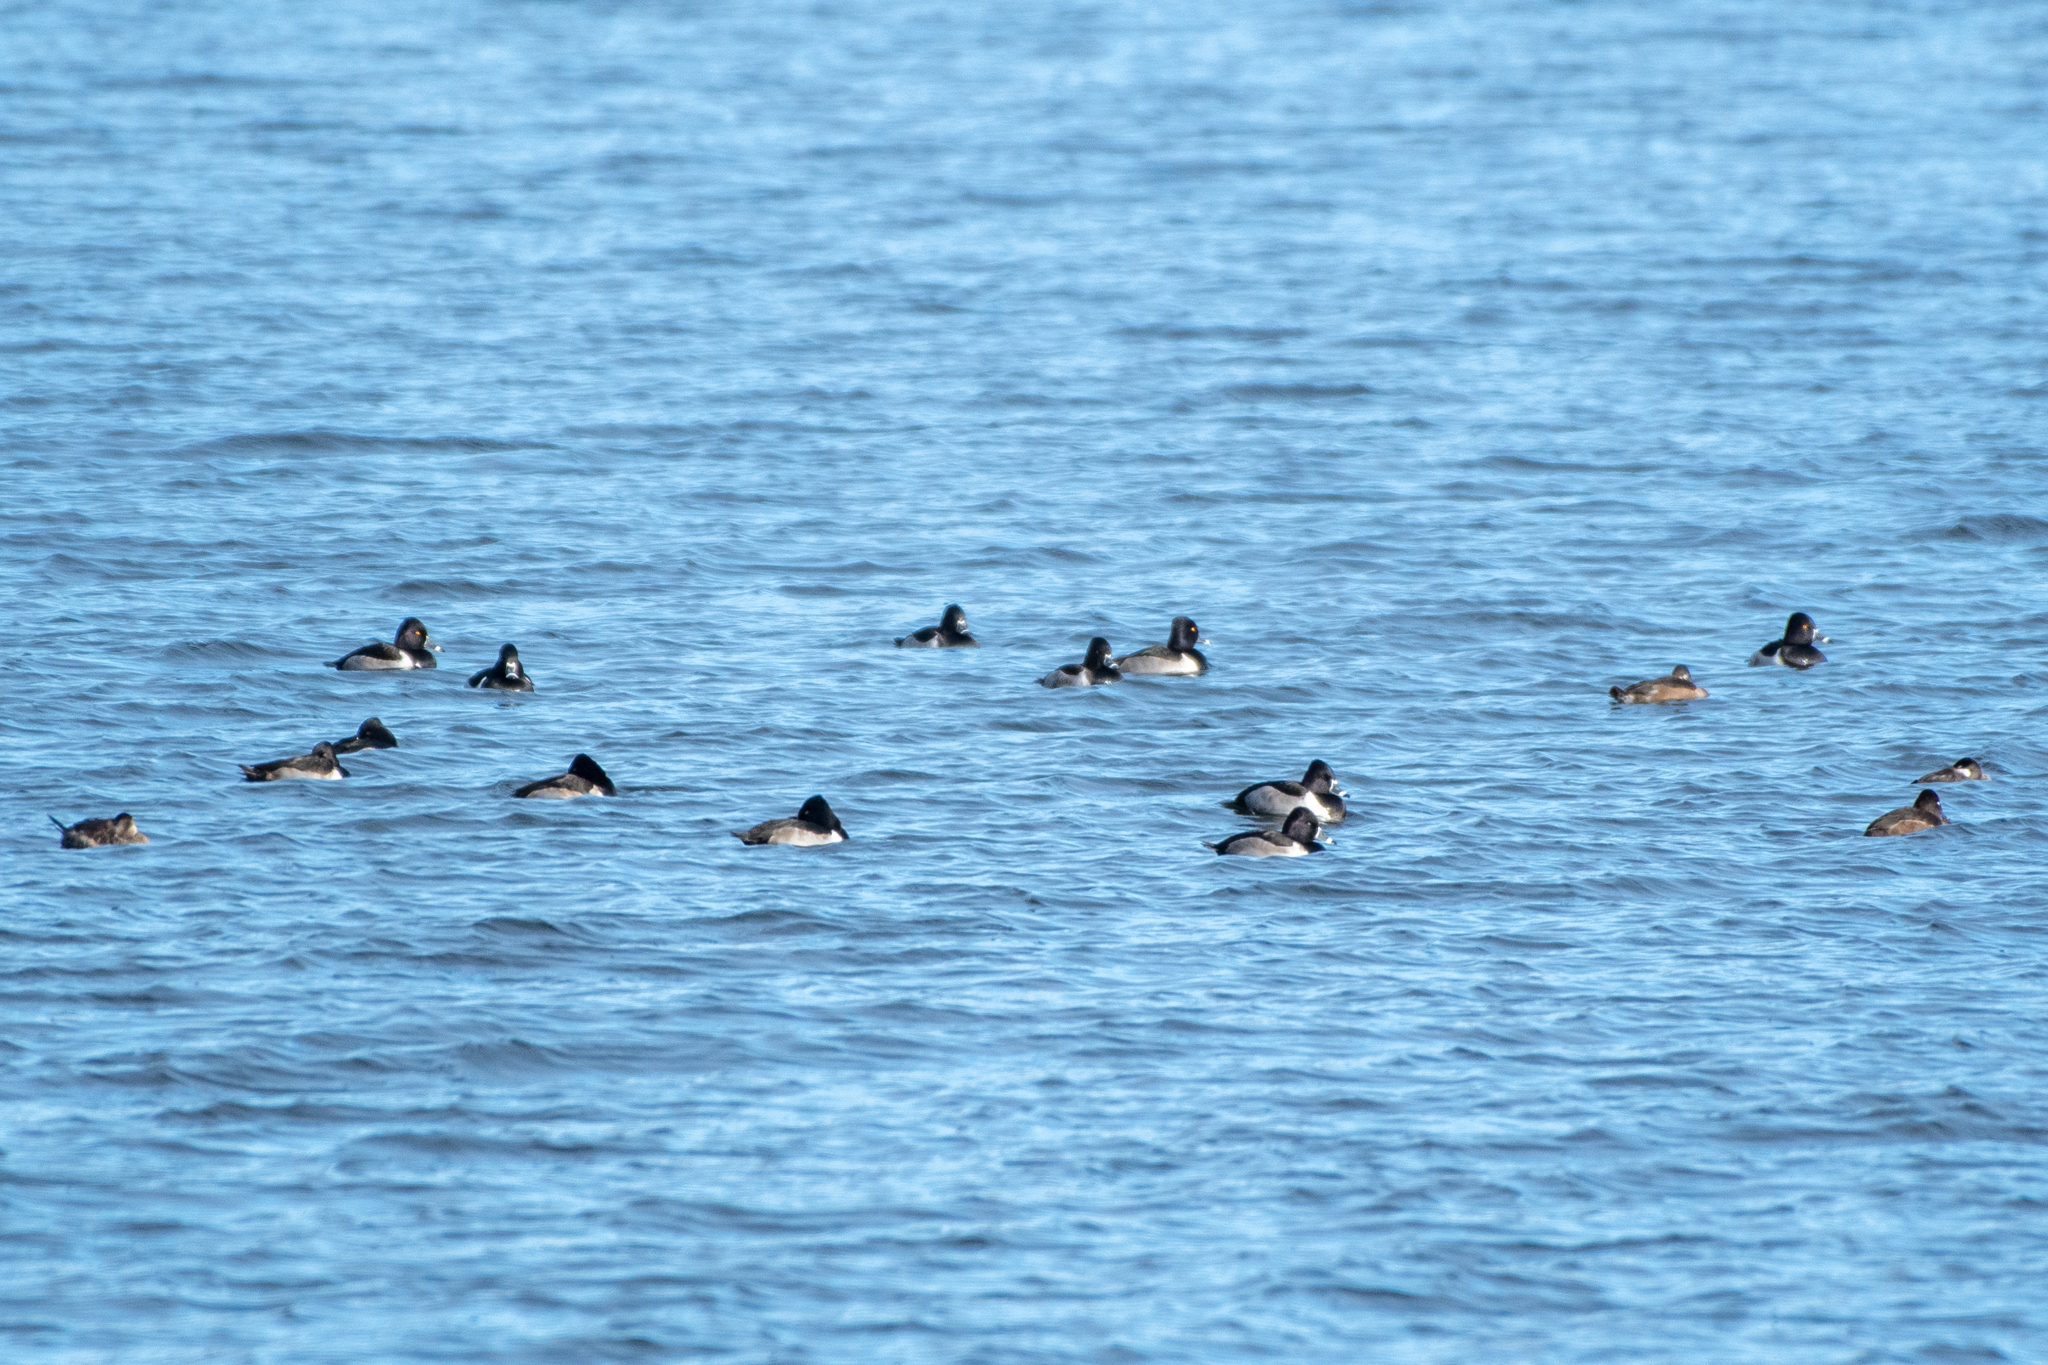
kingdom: Animalia
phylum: Chordata
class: Aves
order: Anseriformes
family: Anatidae
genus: Aythya
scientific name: Aythya collaris
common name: Ring-necked duck
